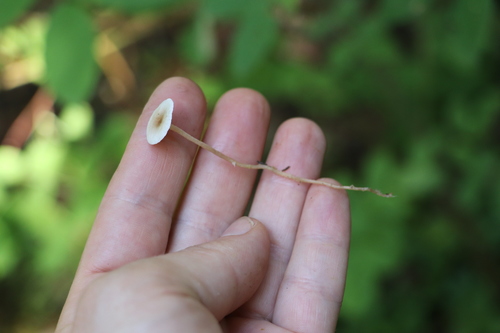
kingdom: Fungi
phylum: Basidiomycota
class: Agaricomycetes
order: Agaricales
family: Tricholomataceae
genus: Collybia
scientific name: Collybia cirrhata
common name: Piggyback shanklet
